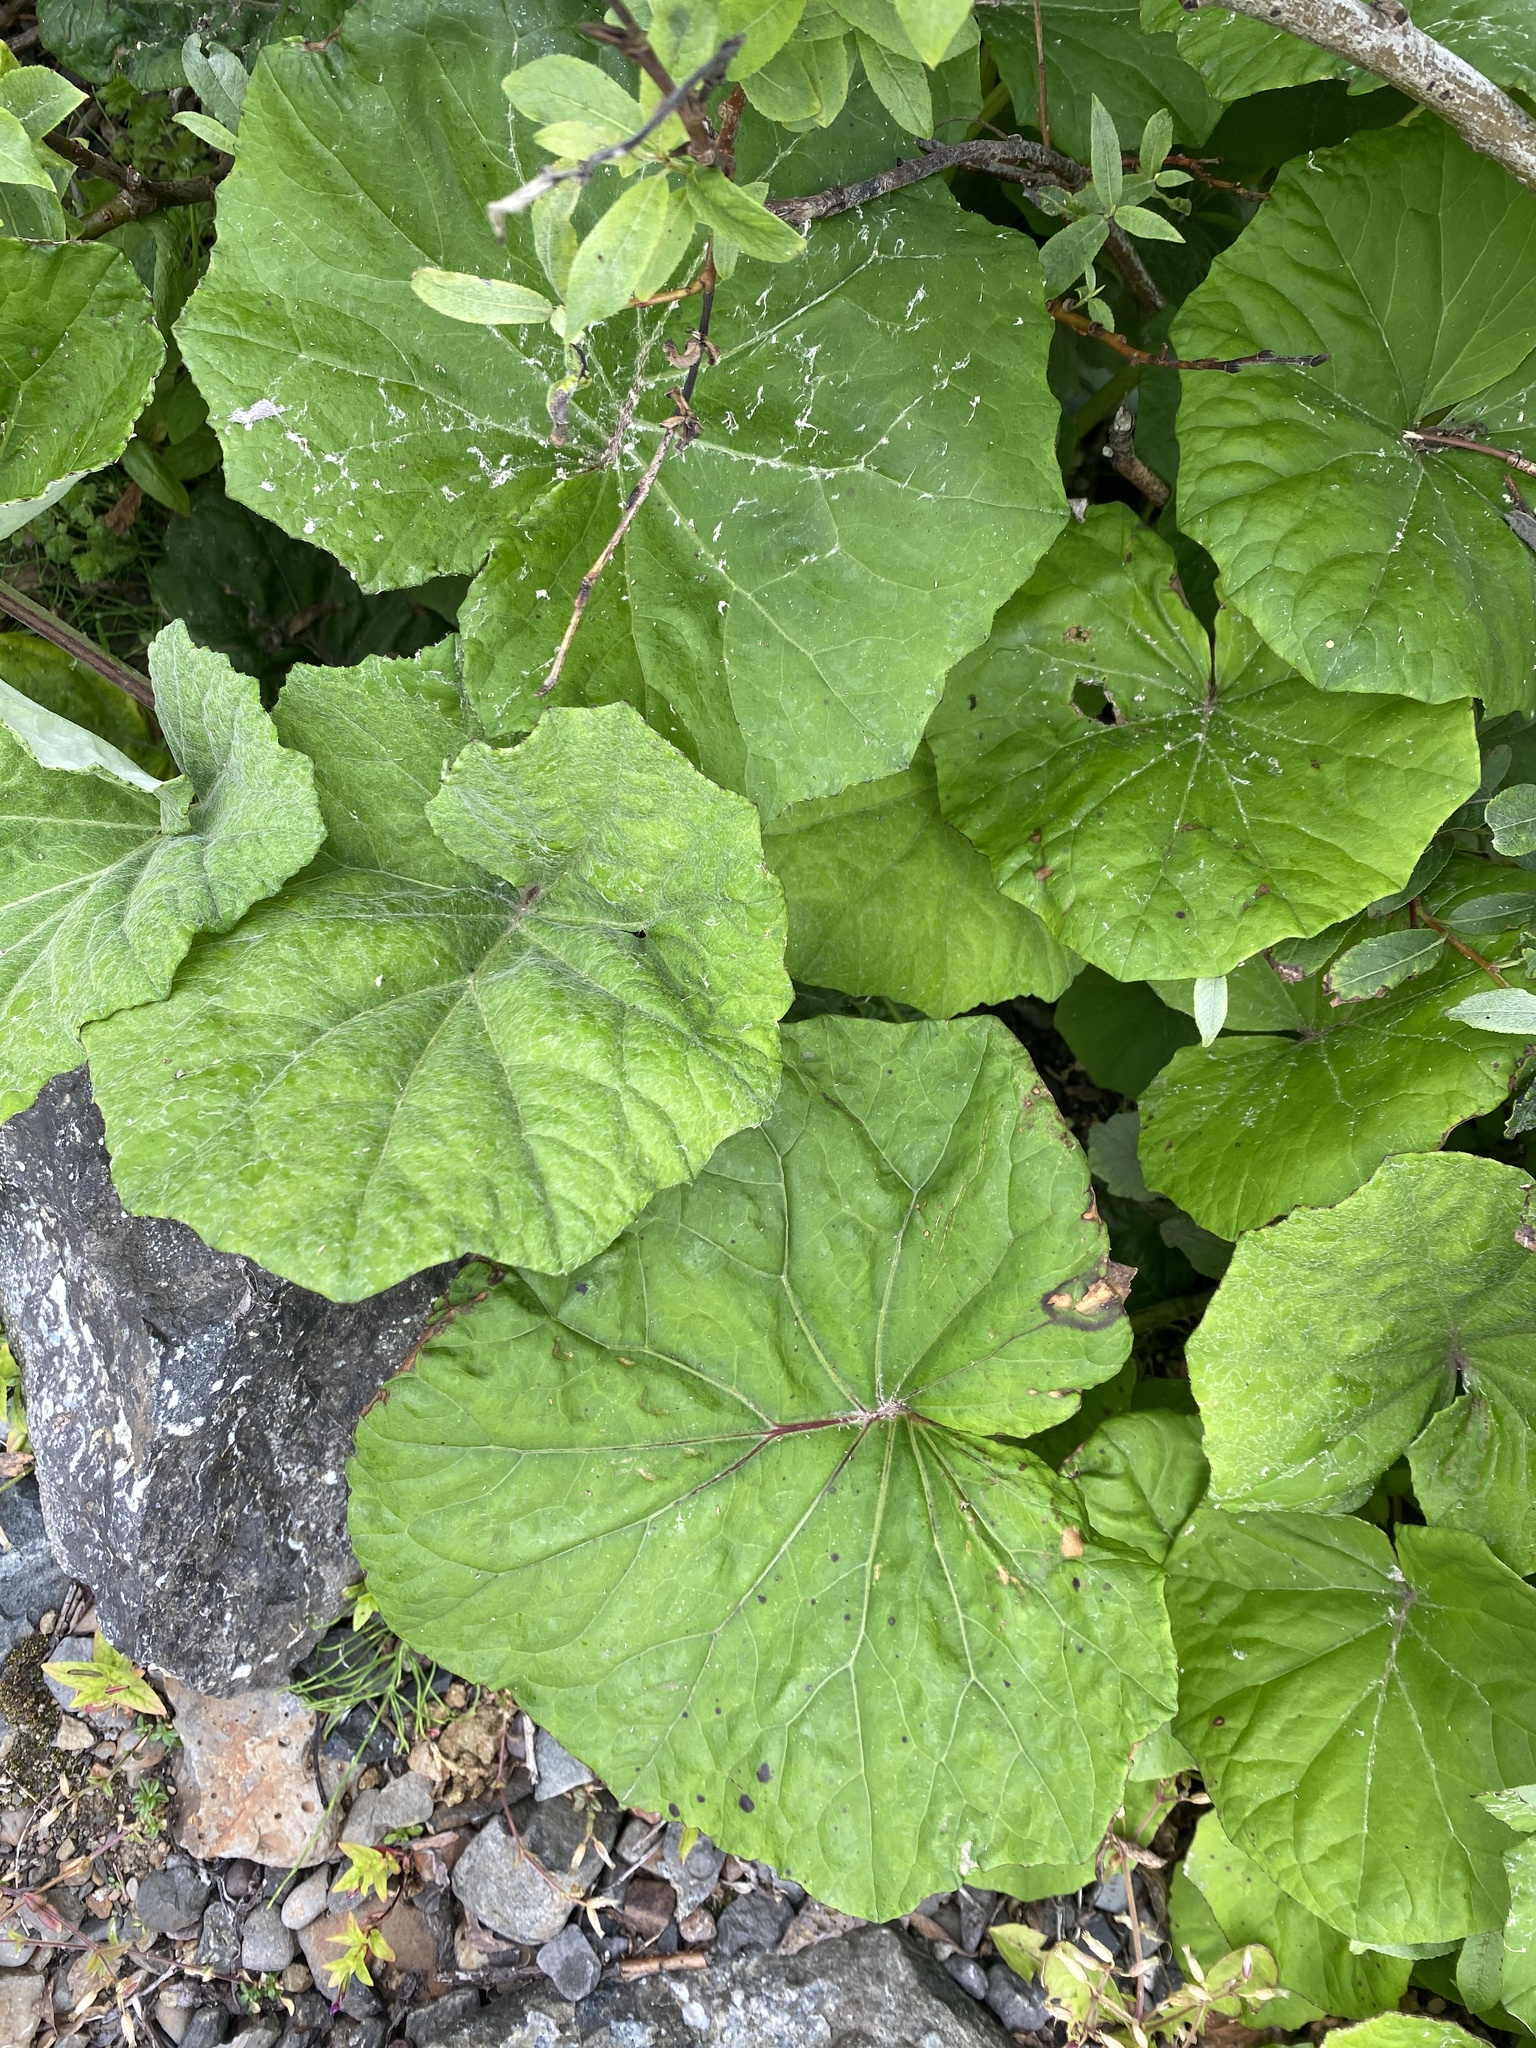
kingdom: Plantae
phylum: Tracheophyta
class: Magnoliopsida
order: Asterales
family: Asteraceae
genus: Tussilago
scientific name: Tussilago farfara
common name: Coltsfoot
